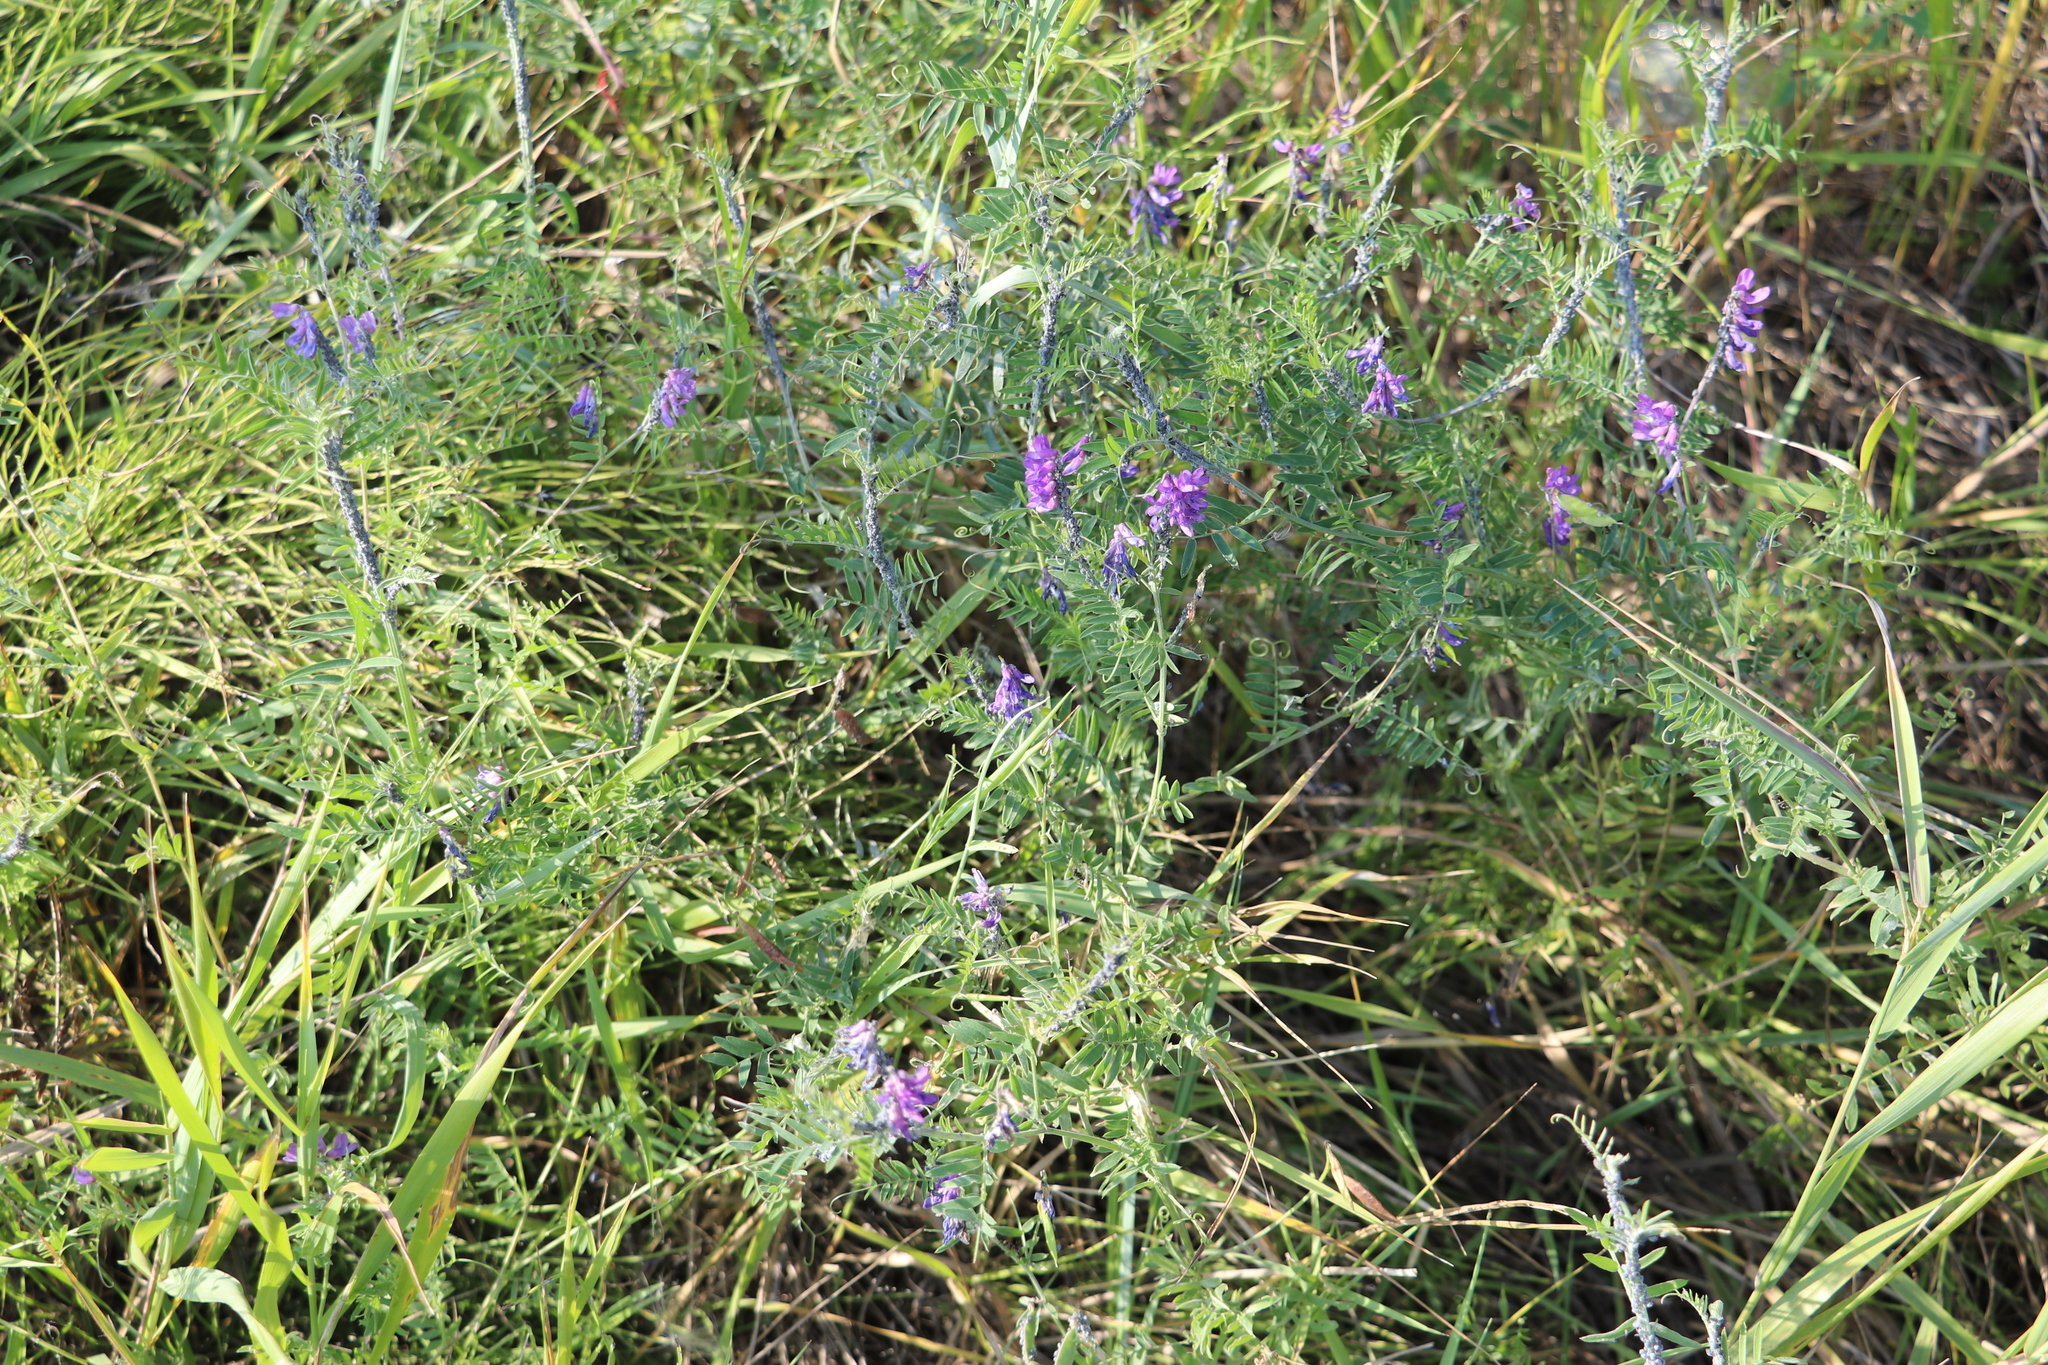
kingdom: Plantae
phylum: Tracheophyta
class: Magnoliopsida
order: Fabales
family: Fabaceae
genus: Vicia
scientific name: Vicia cracca
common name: Bird vetch
